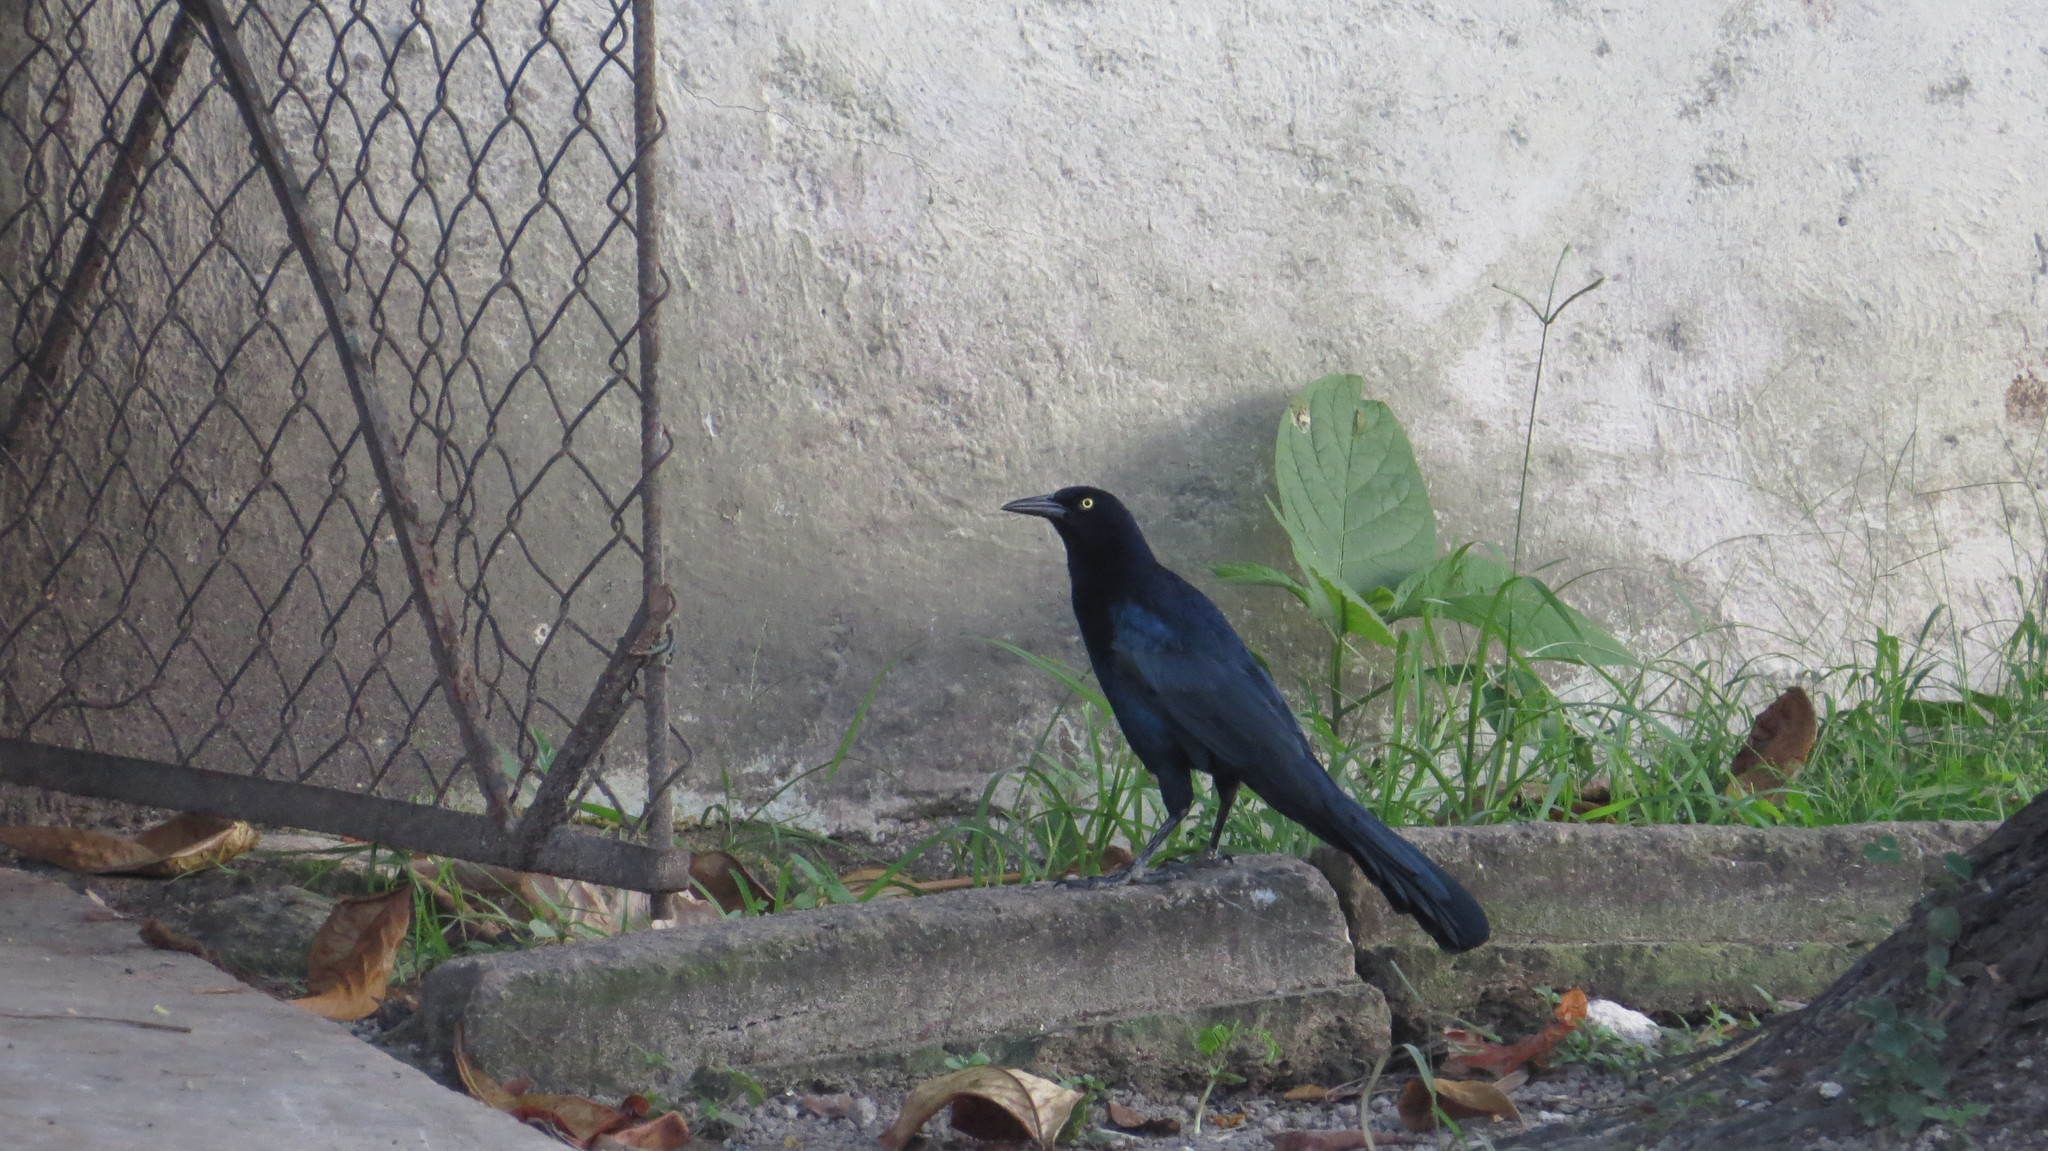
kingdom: Animalia
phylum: Chordata
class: Aves
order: Passeriformes
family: Icteridae
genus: Quiscalus
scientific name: Quiscalus mexicanus
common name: Great-tailed grackle
